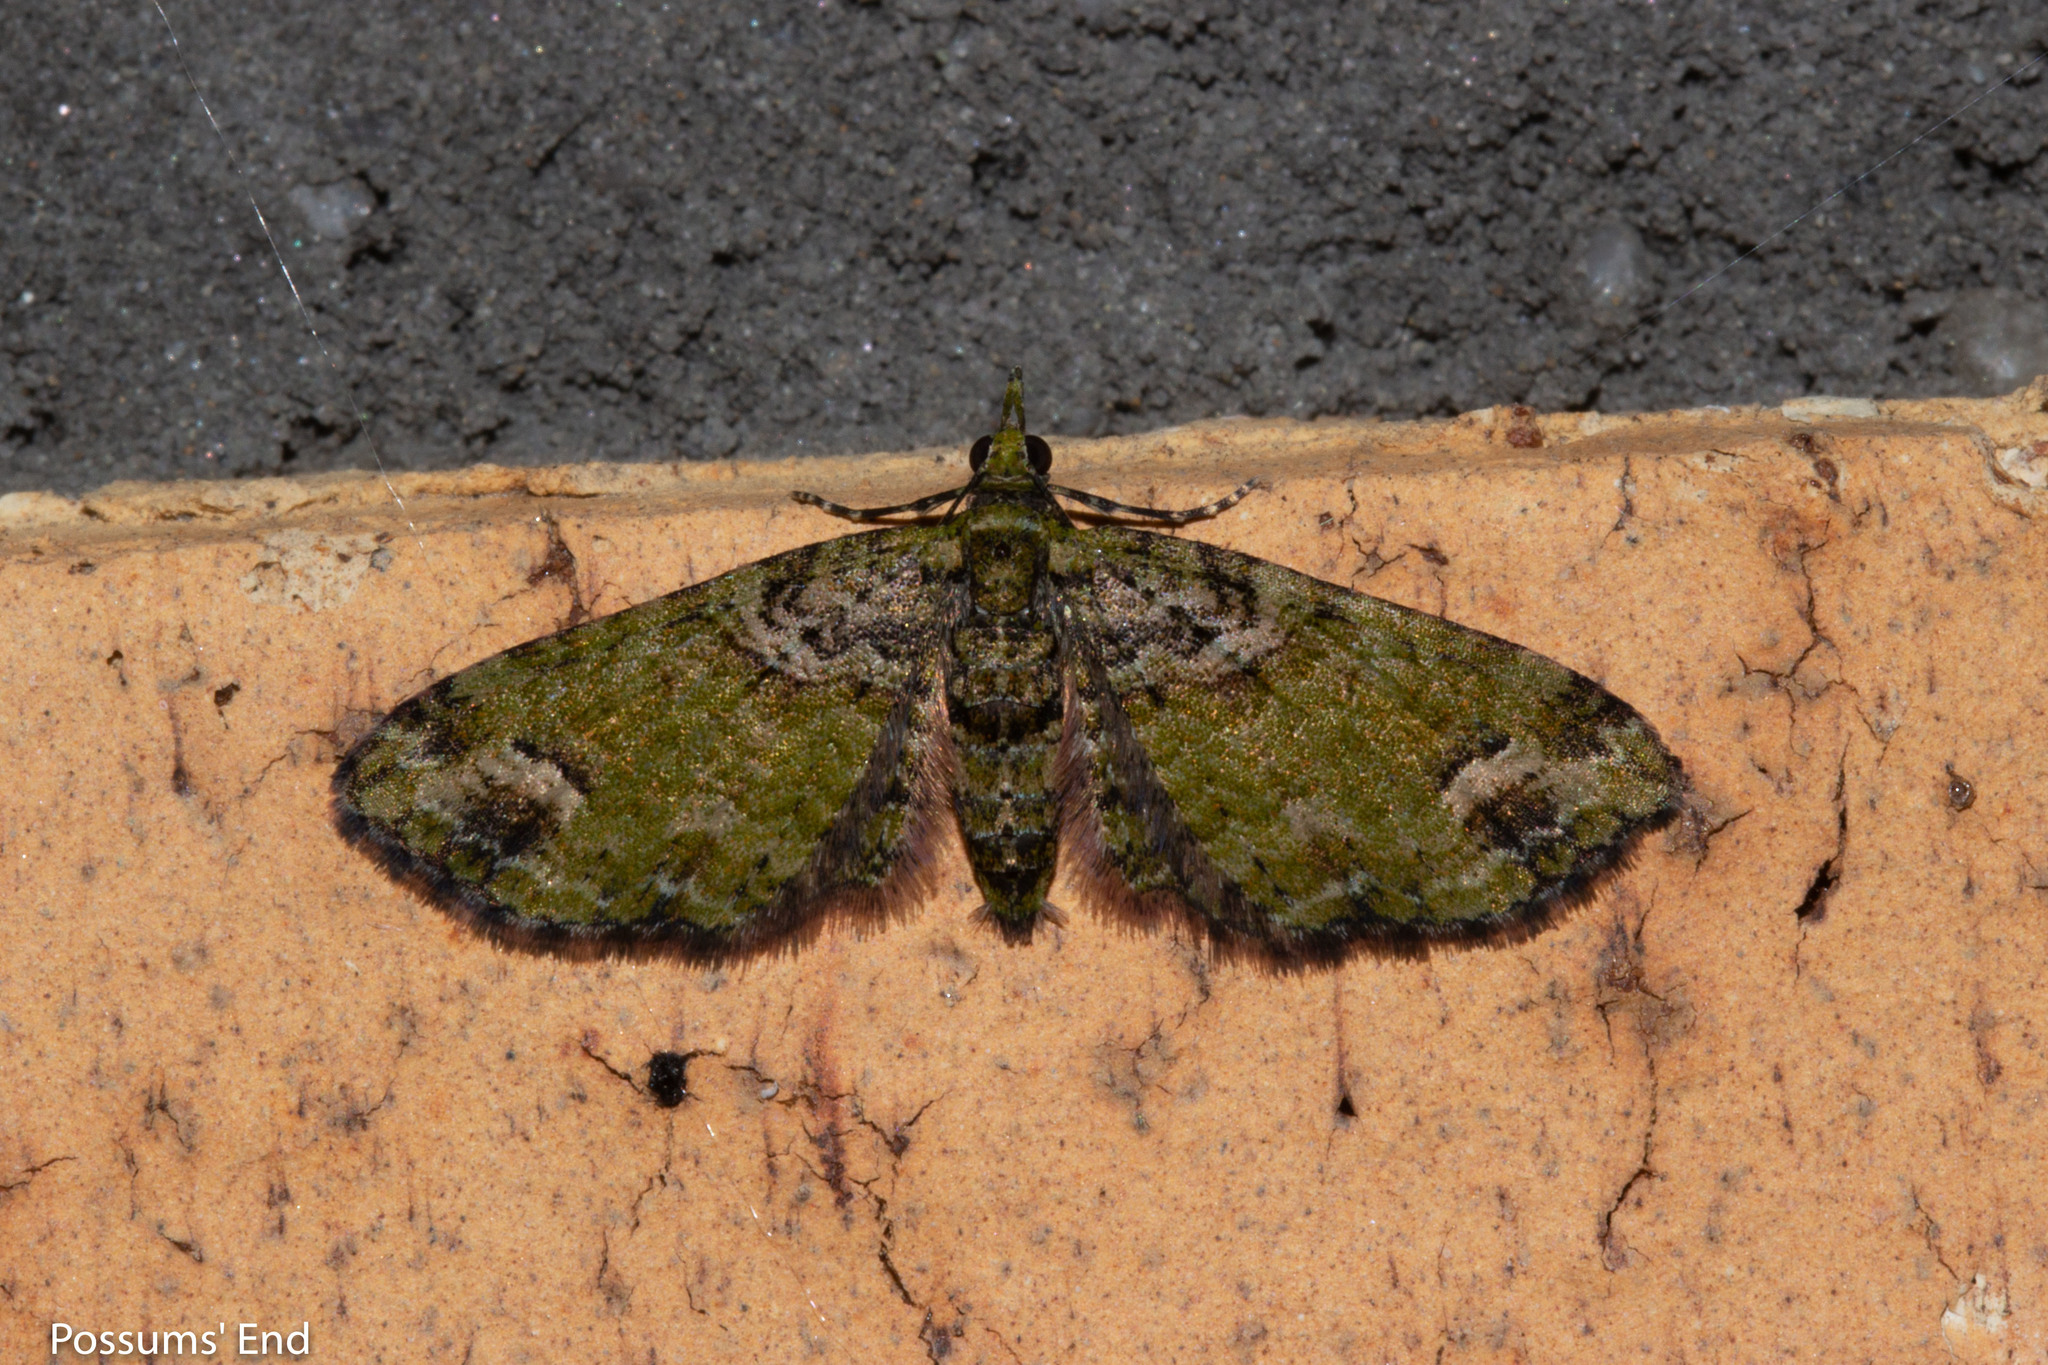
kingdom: Animalia
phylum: Arthropoda
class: Insecta
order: Lepidoptera
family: Geometridae
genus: Idaea
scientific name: Idaea mutanda
